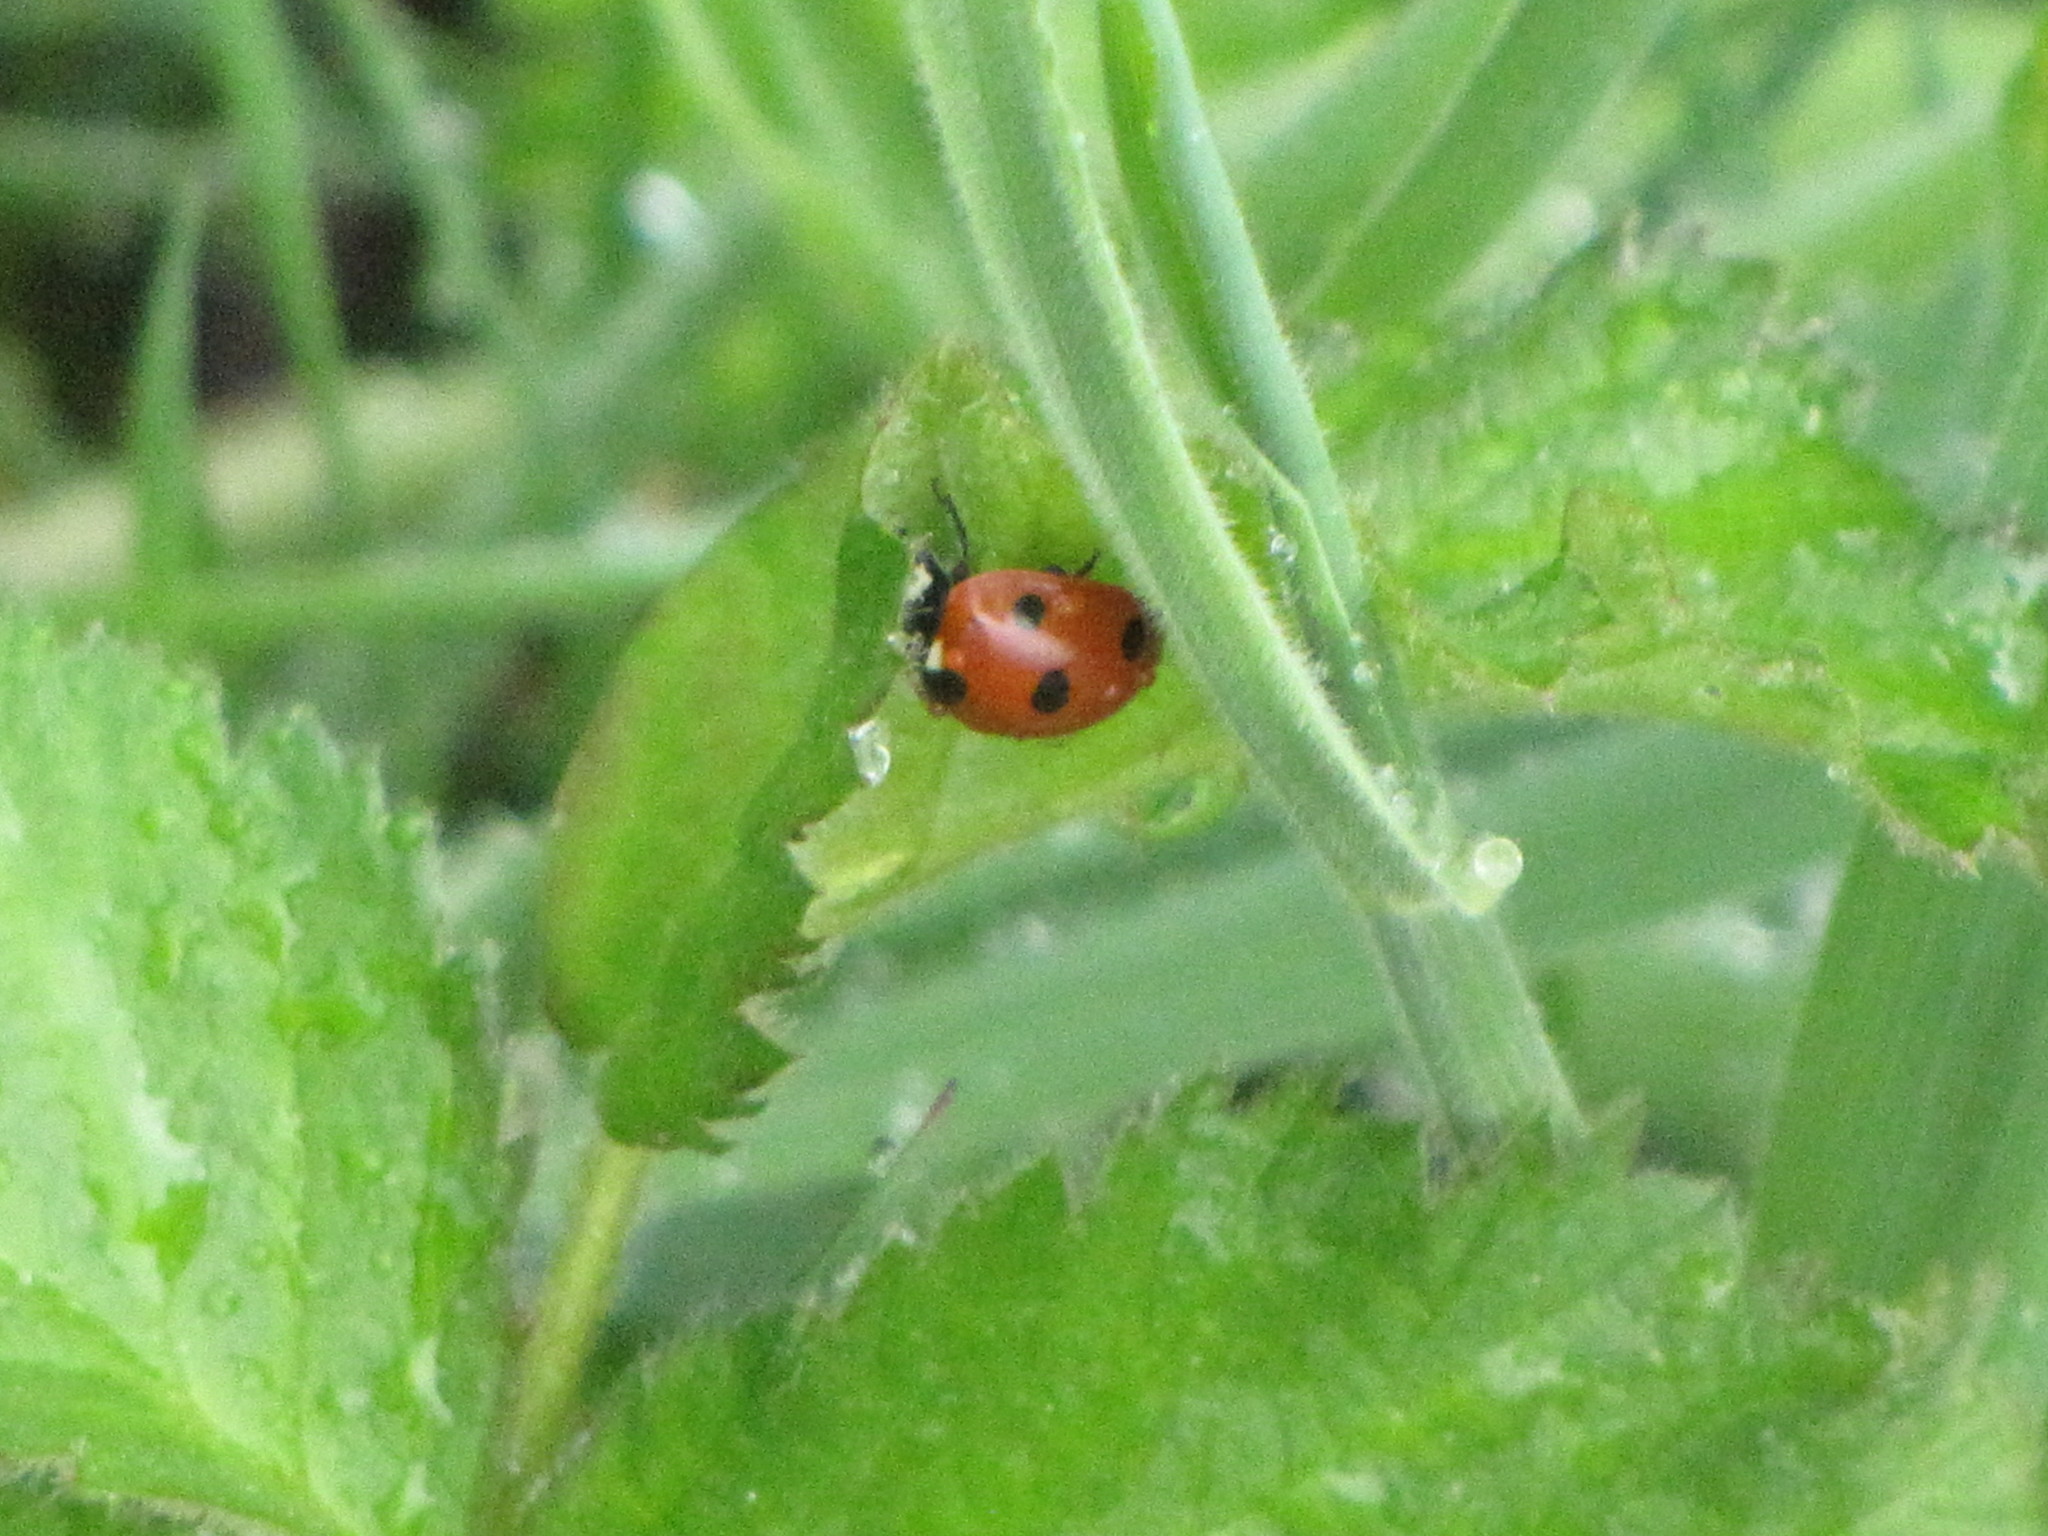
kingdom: Animalia
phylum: Arthropoda
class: Insecta
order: Coleoptera
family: Coccinellidae
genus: Coccinella
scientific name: Coccinella septempunctata
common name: Sevenspotted lady beetle
